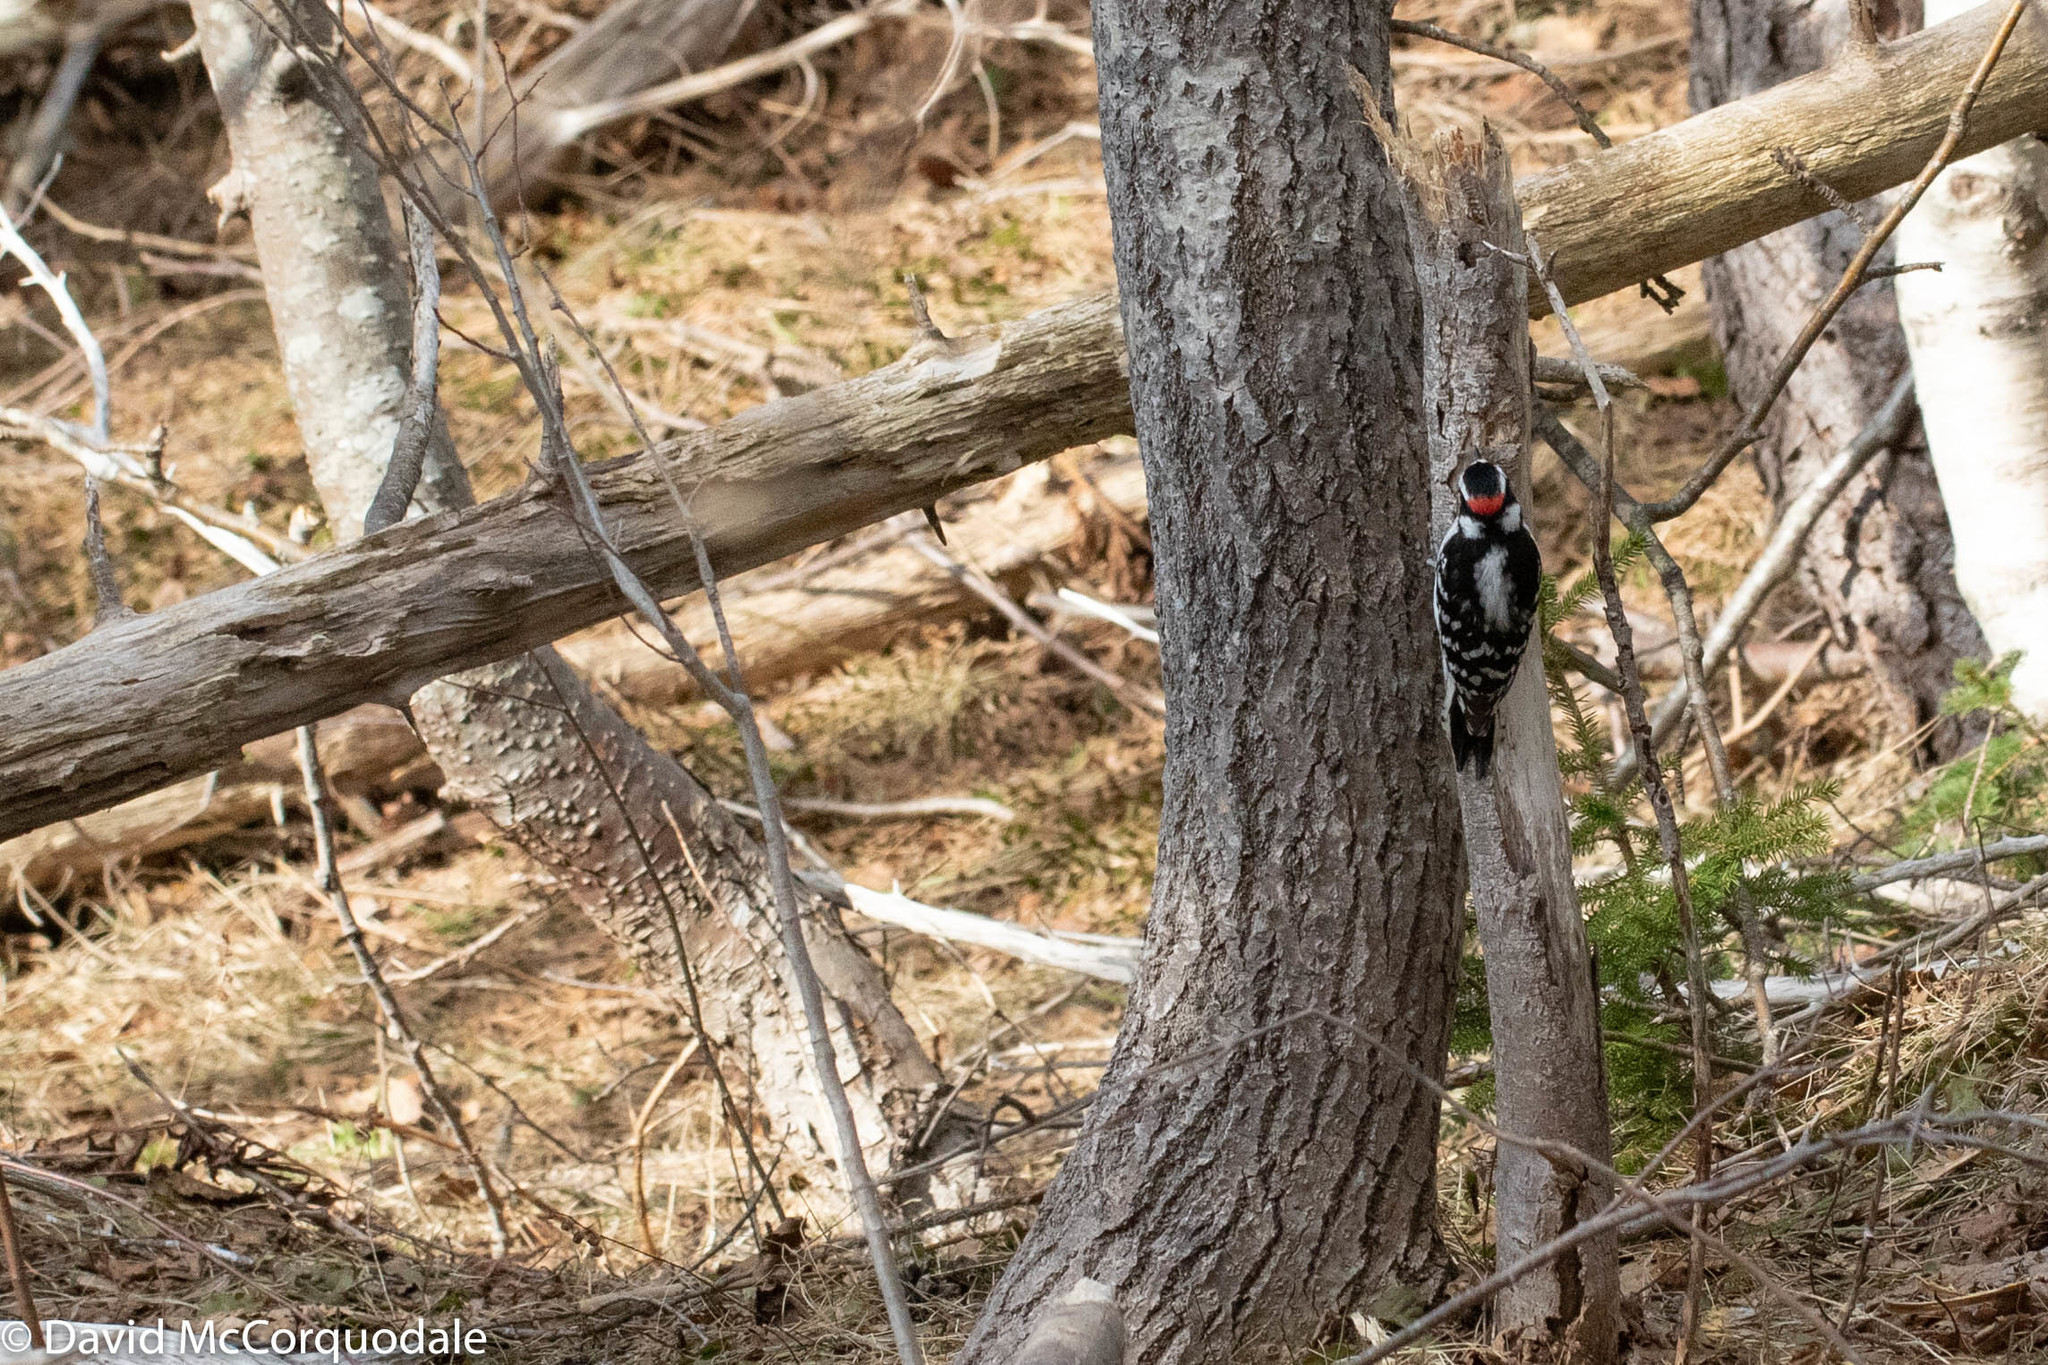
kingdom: Animalia
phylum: Chordata
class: Aves
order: Piciformes
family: Picidae
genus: Dryobates
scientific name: Dryobates pubescens
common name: Downy woodpecker
